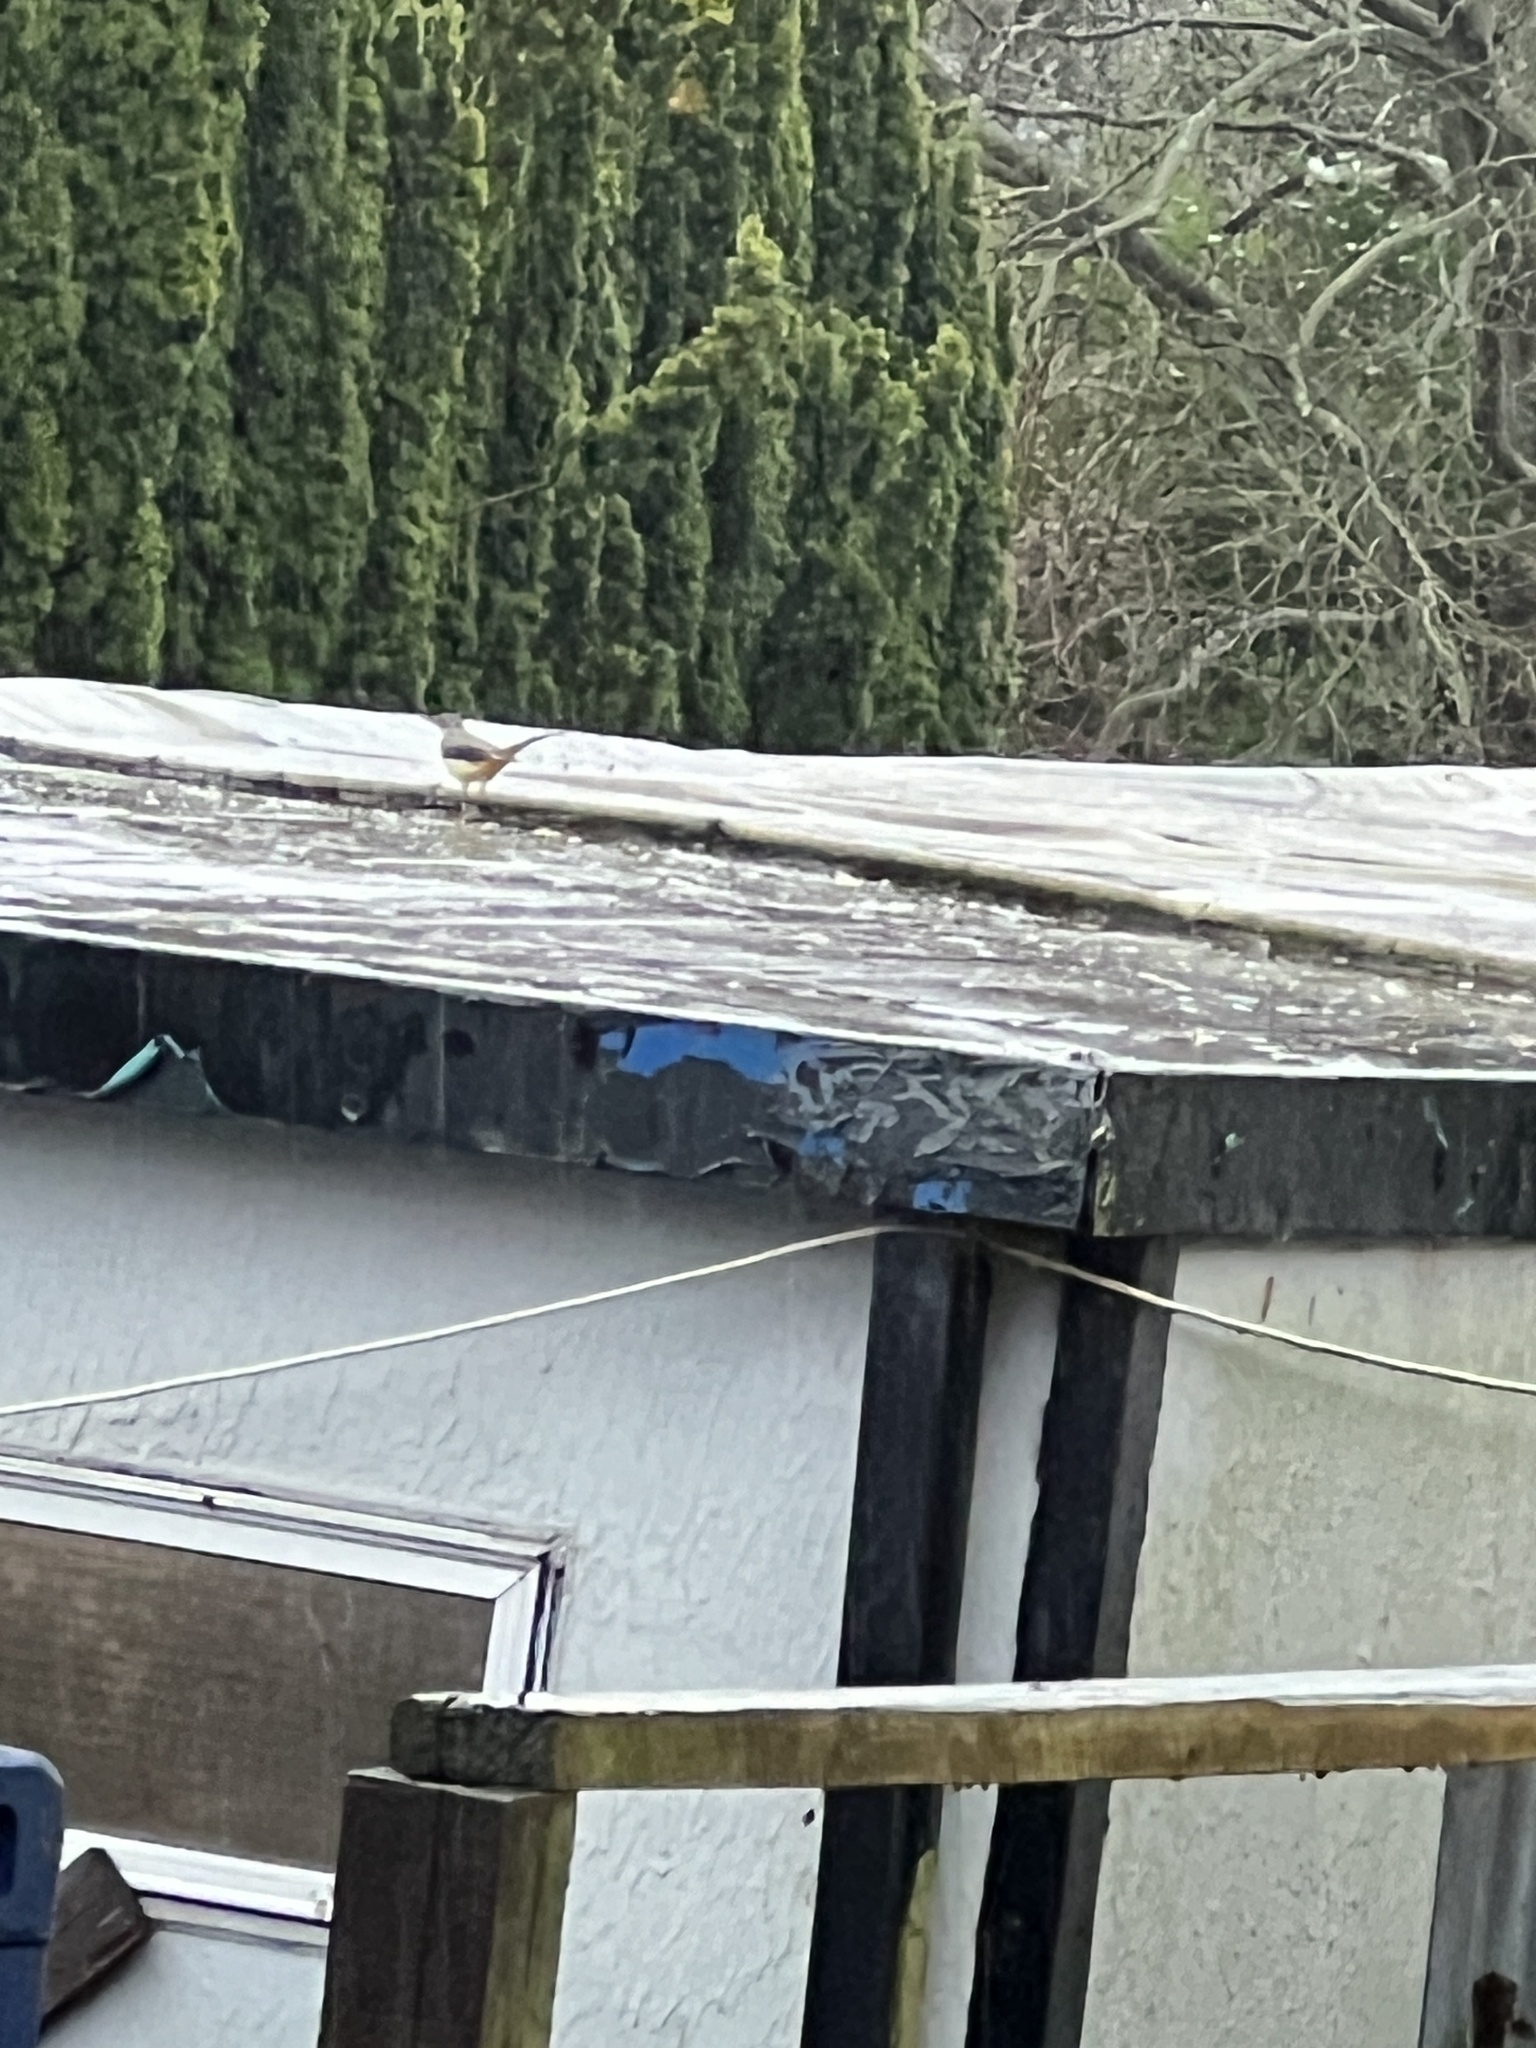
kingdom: Animalia
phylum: Chordata
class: Aves
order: Passeriformes
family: Motacillidae
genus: Motacilla
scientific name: Motacilla cinerea
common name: Grey wagtail
